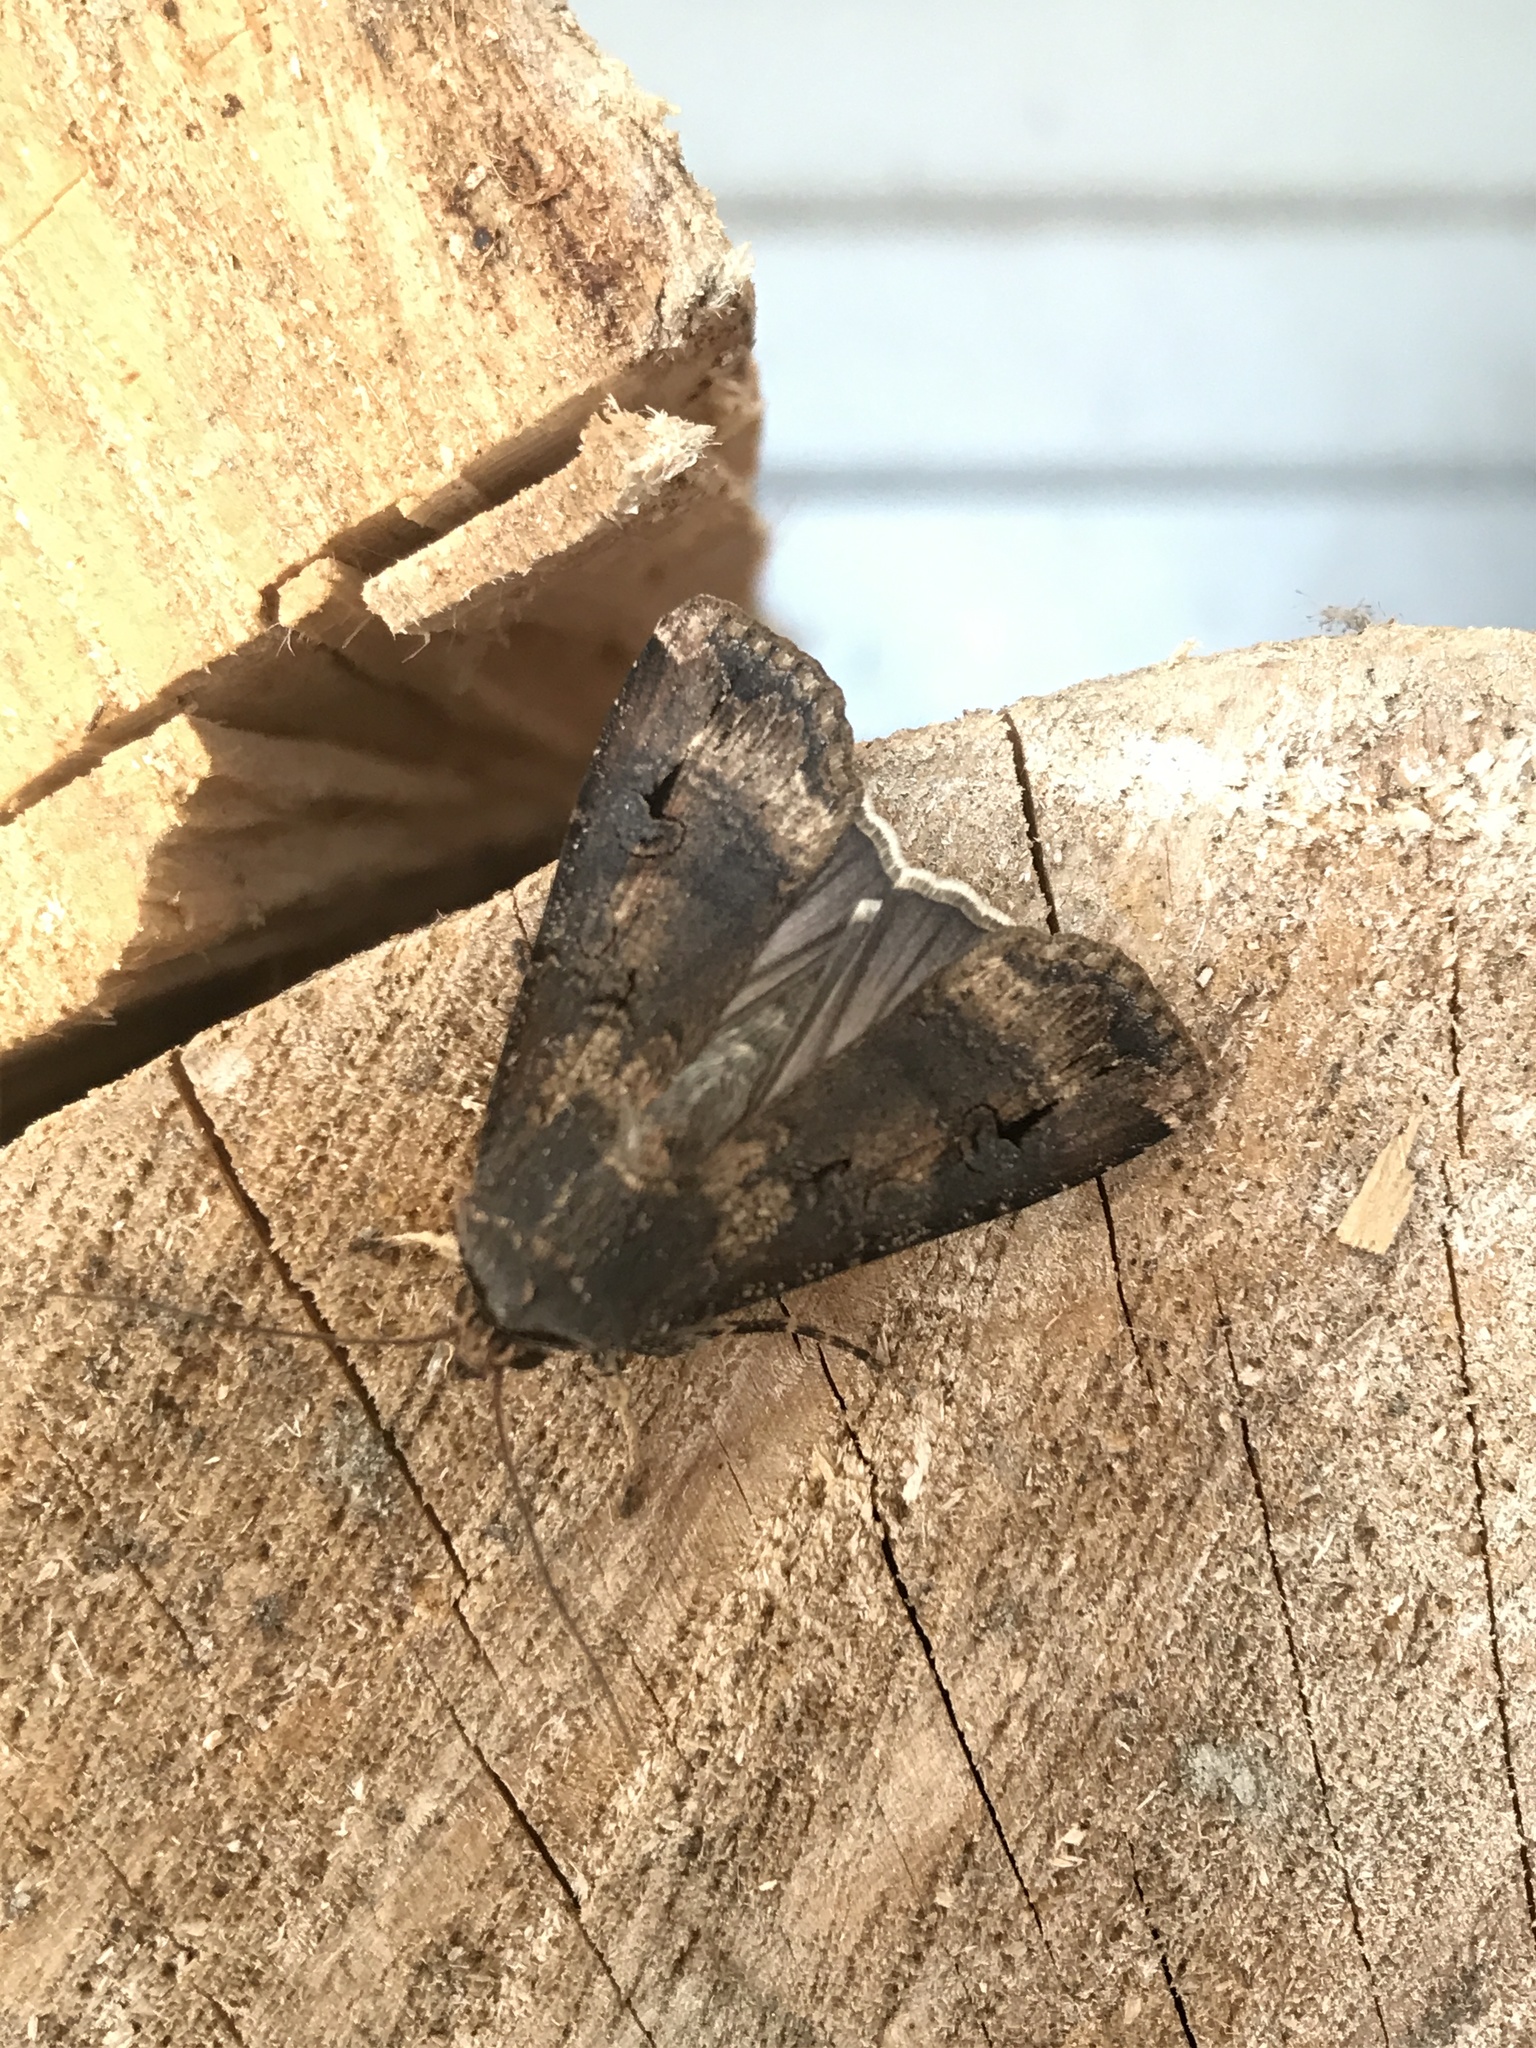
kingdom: Animalia
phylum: Arthropoda
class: Insecta
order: Lepidoptera
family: Noctuidae
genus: Agrotis
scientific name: Agrotis ipsilon
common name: Dark sword-grass
